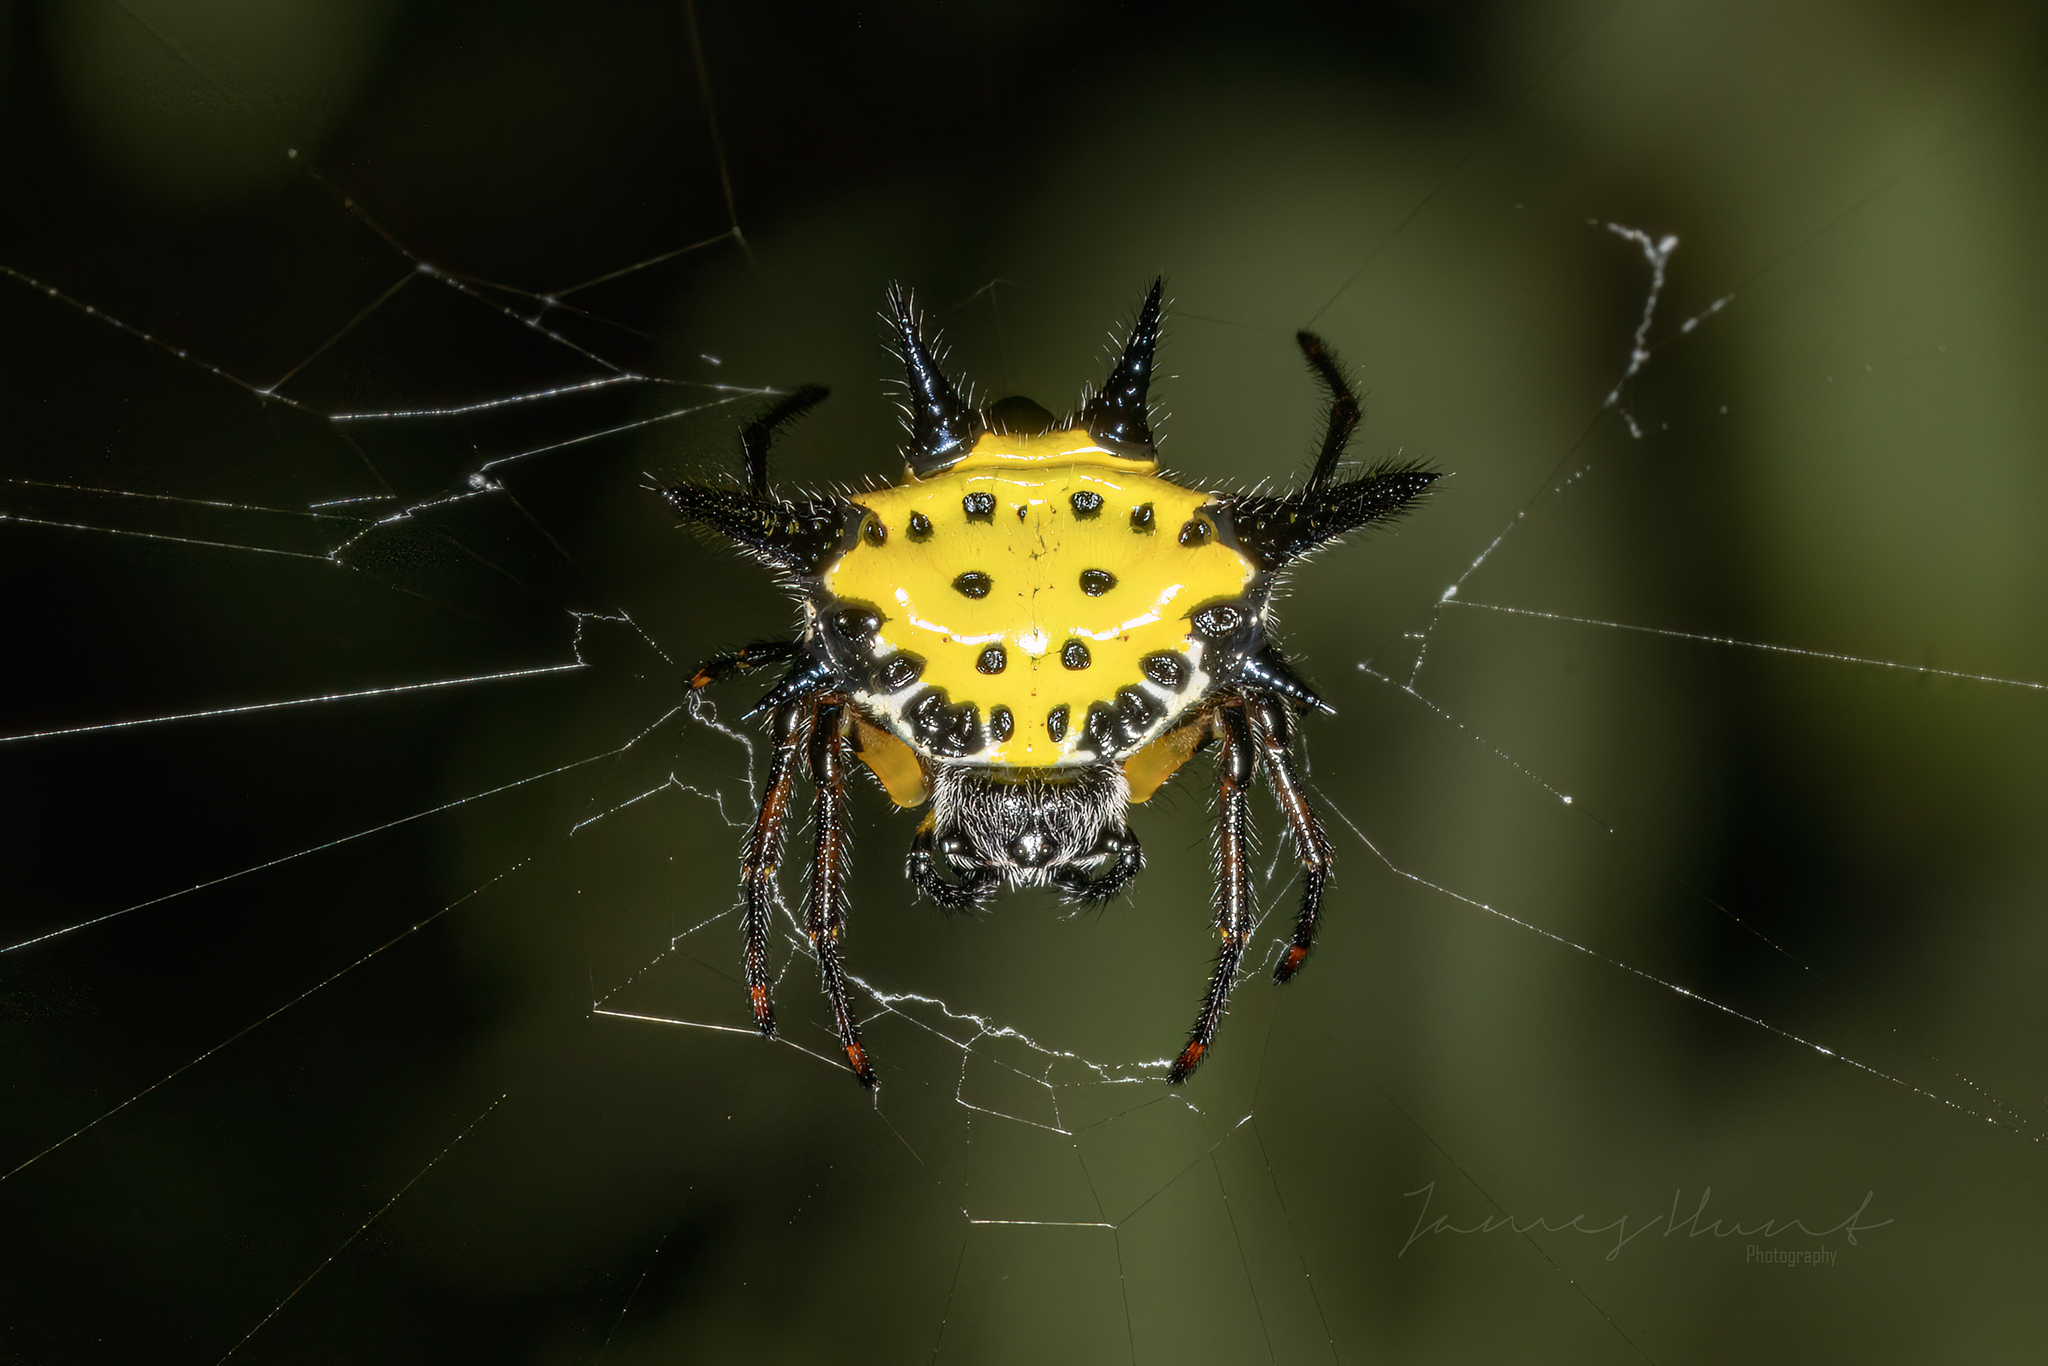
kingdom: Animalia
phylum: Arthropoda
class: Arachnida
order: Araneae
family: Araneidae
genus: Macracantha
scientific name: Macracantha hasselti
